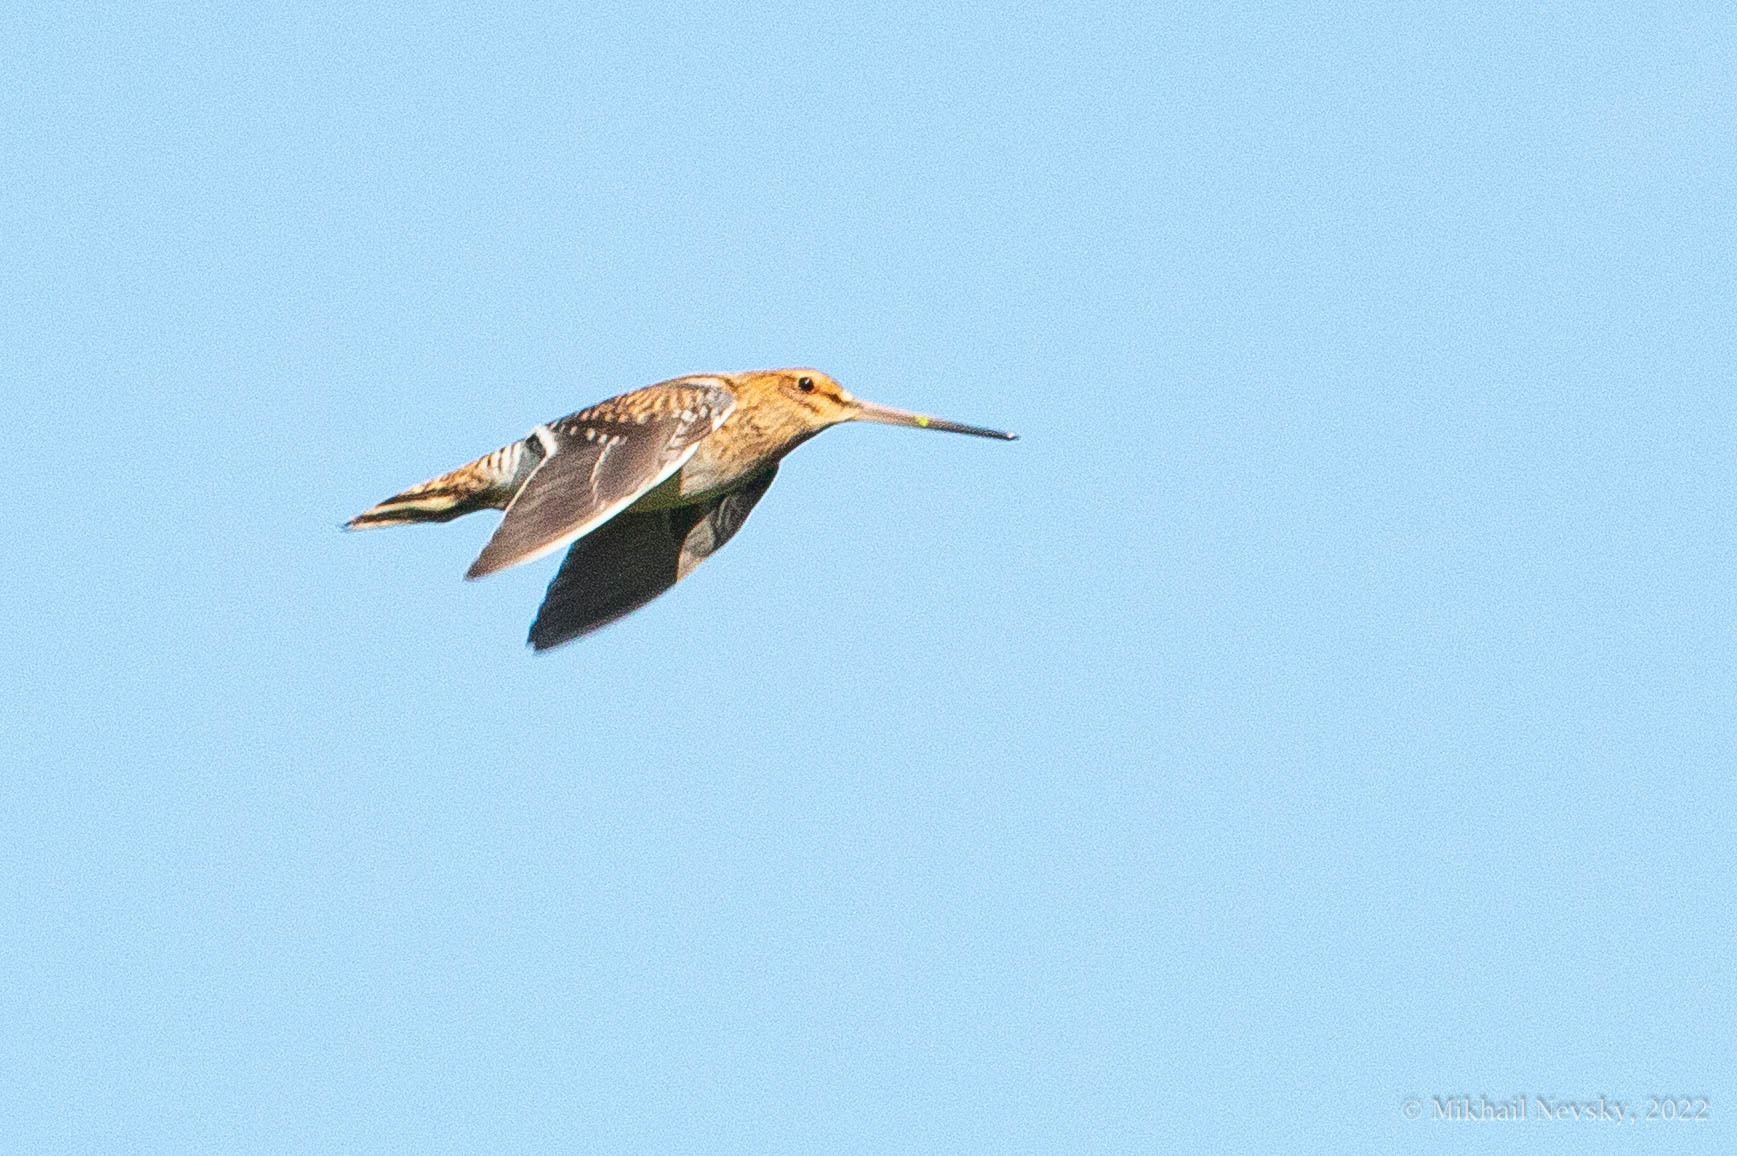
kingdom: Animalia
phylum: Chordata
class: Aves
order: Charadriiformes
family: Scolopacidae
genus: Gallinago
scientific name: Gallinago gallinago
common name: Common snipe
